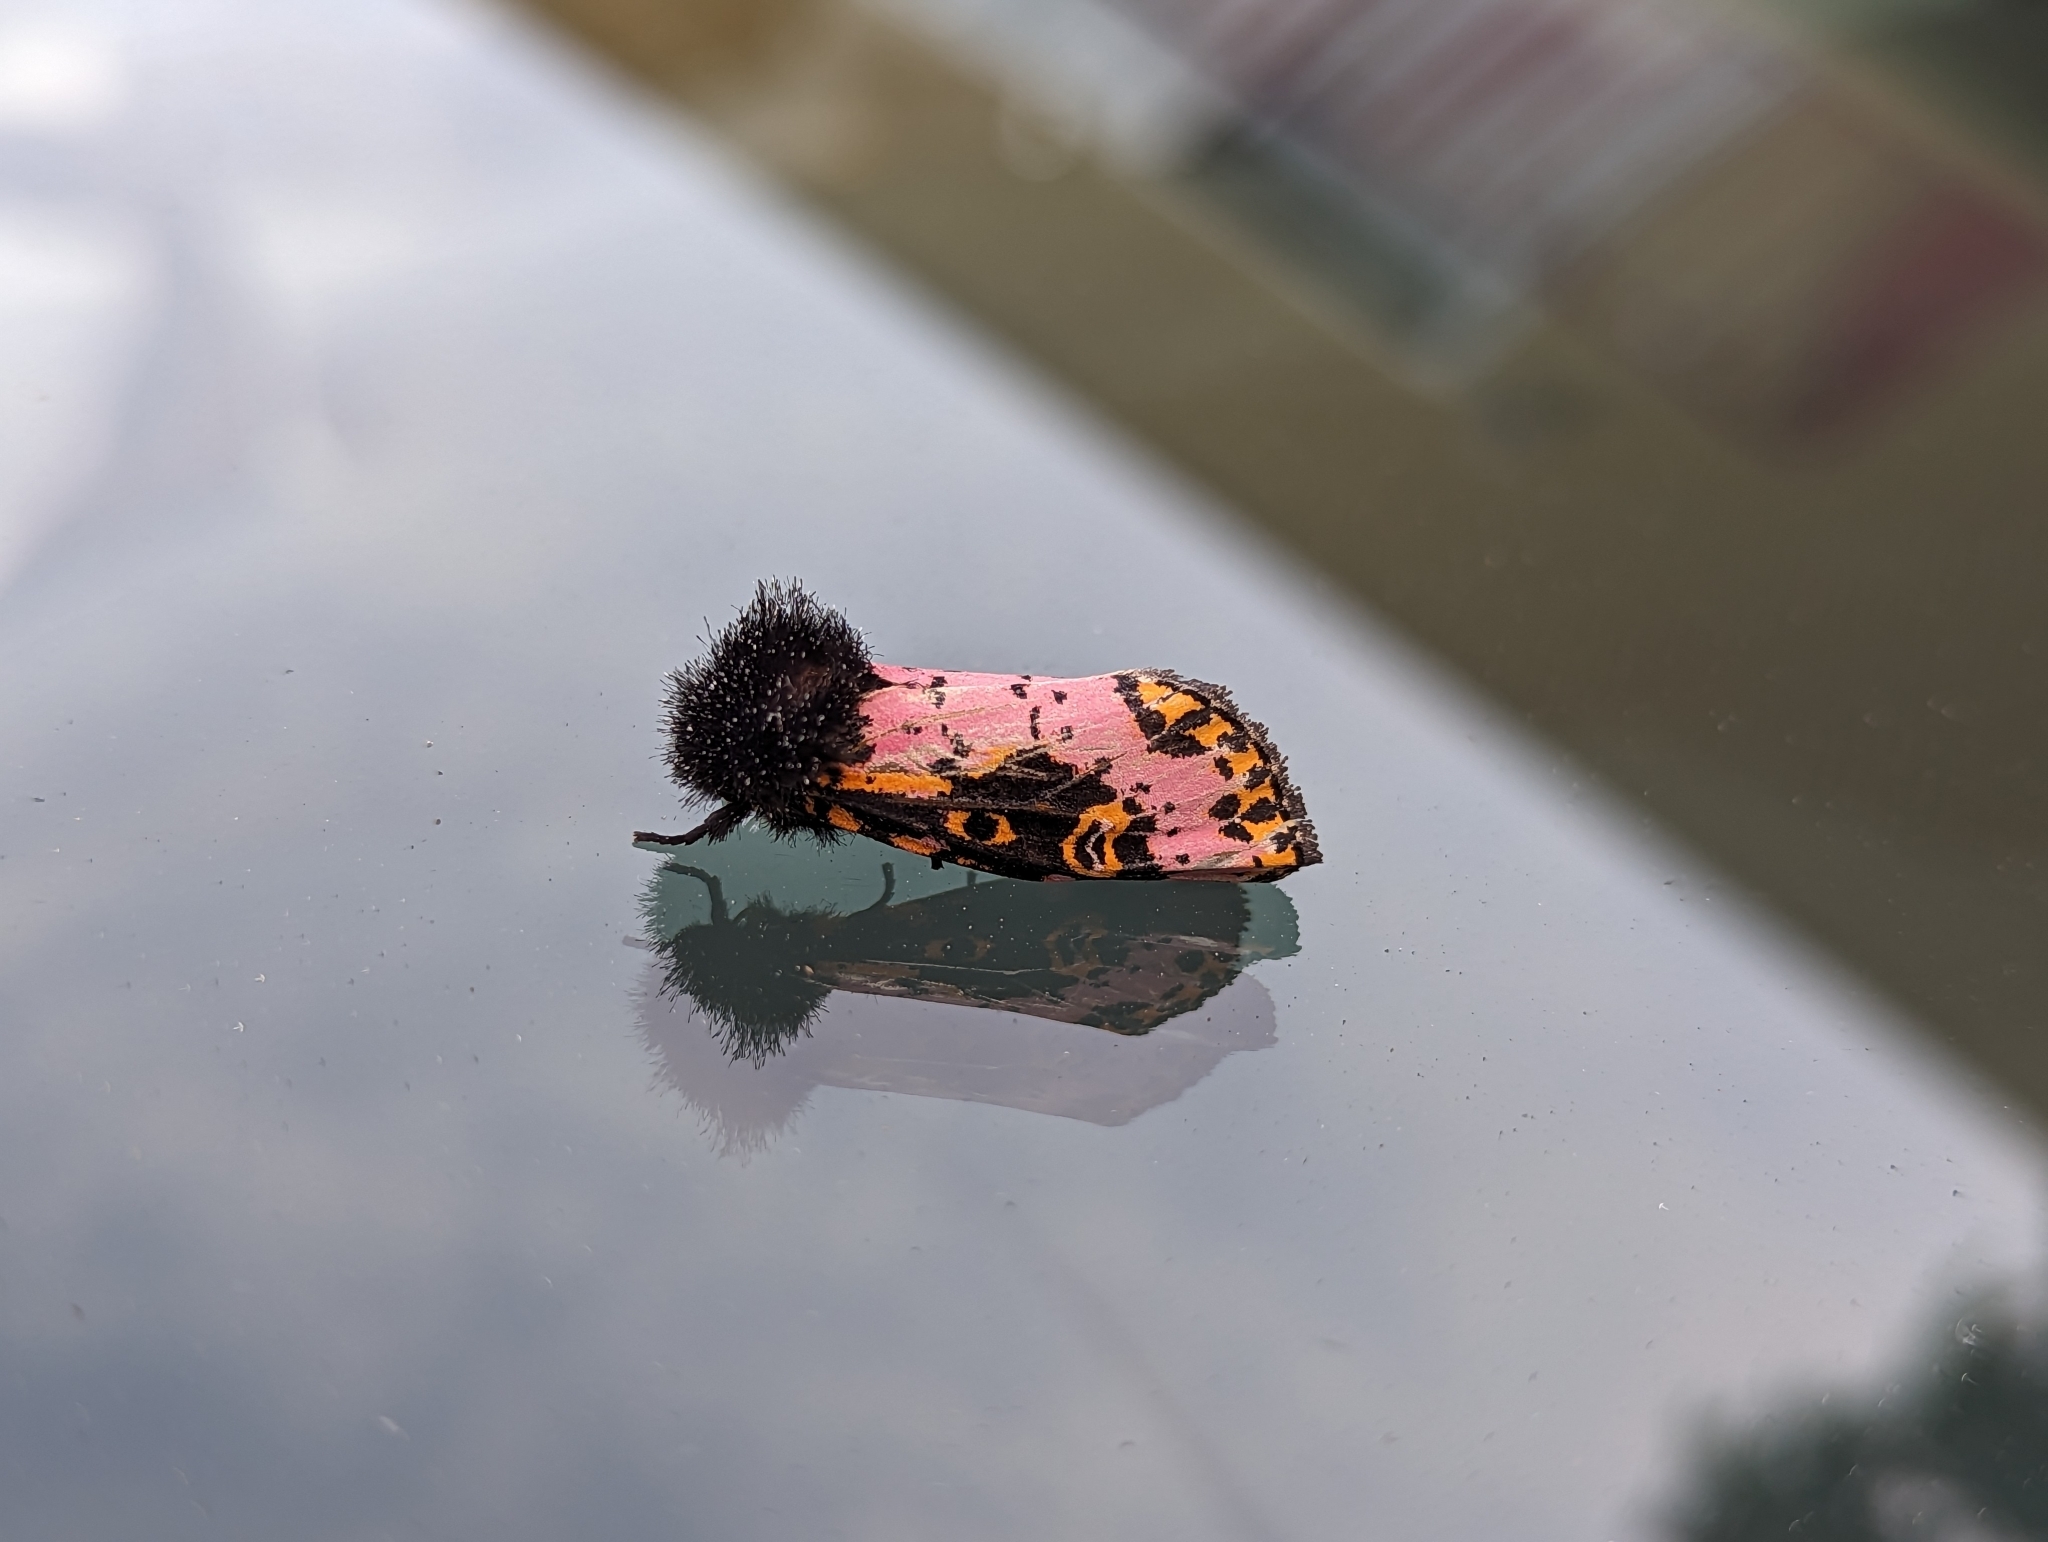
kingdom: Animalia
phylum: Arthropoda
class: Insecta
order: Lepidoptera
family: Noctuidae
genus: Xanthopastis
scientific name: Xanthopastis regnatrix
